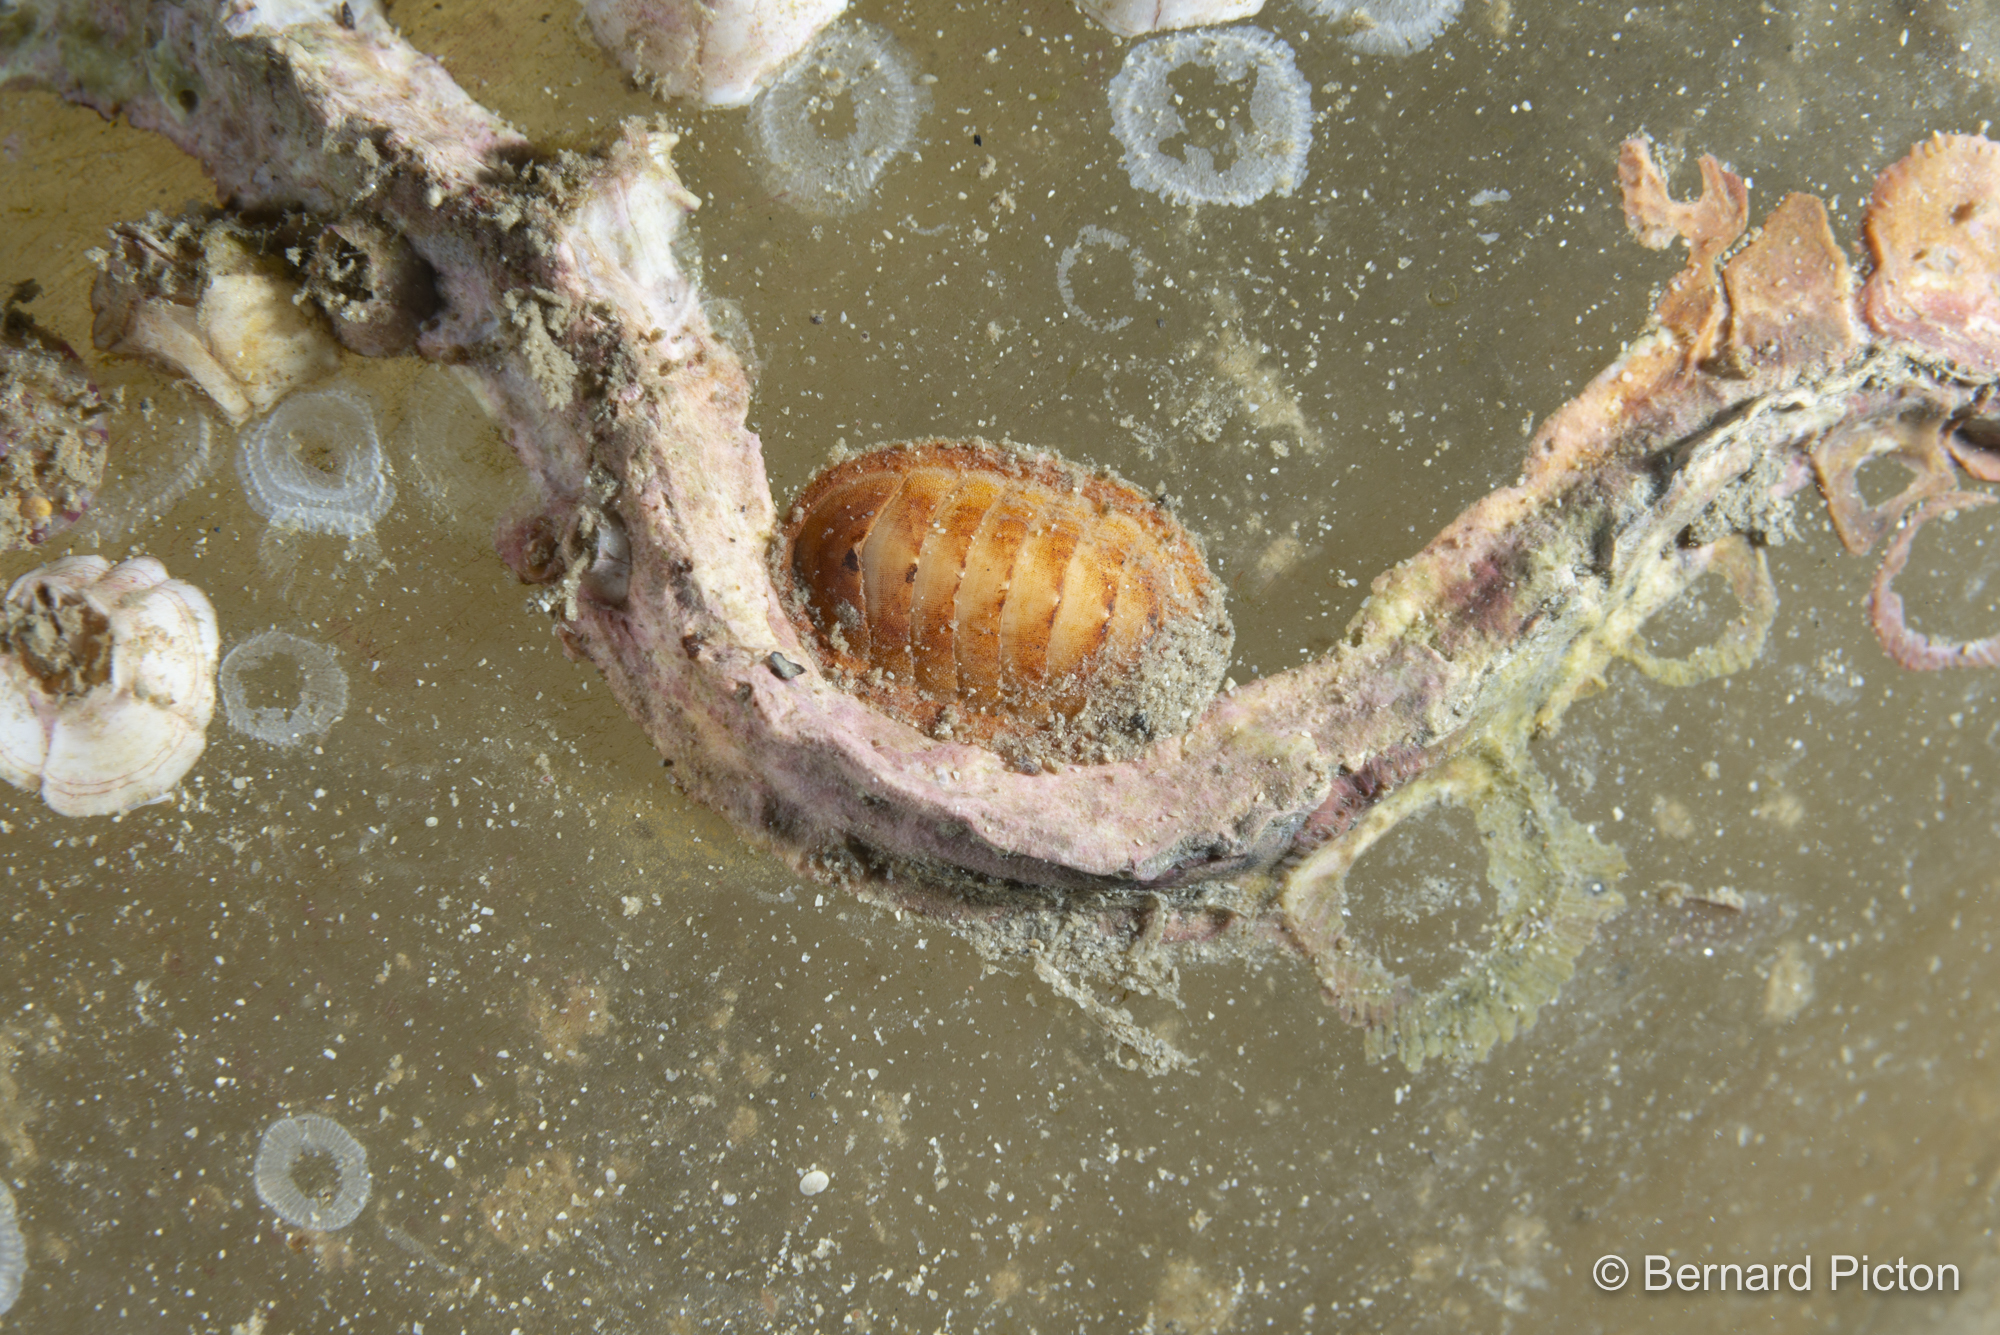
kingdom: Animalia
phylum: Mollusca
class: Polyplacophora
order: Lepidopleurida
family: Leptochitonidae
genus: Leptochiton
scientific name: Leptochiton asellus
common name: Coat-of-mail chiton
